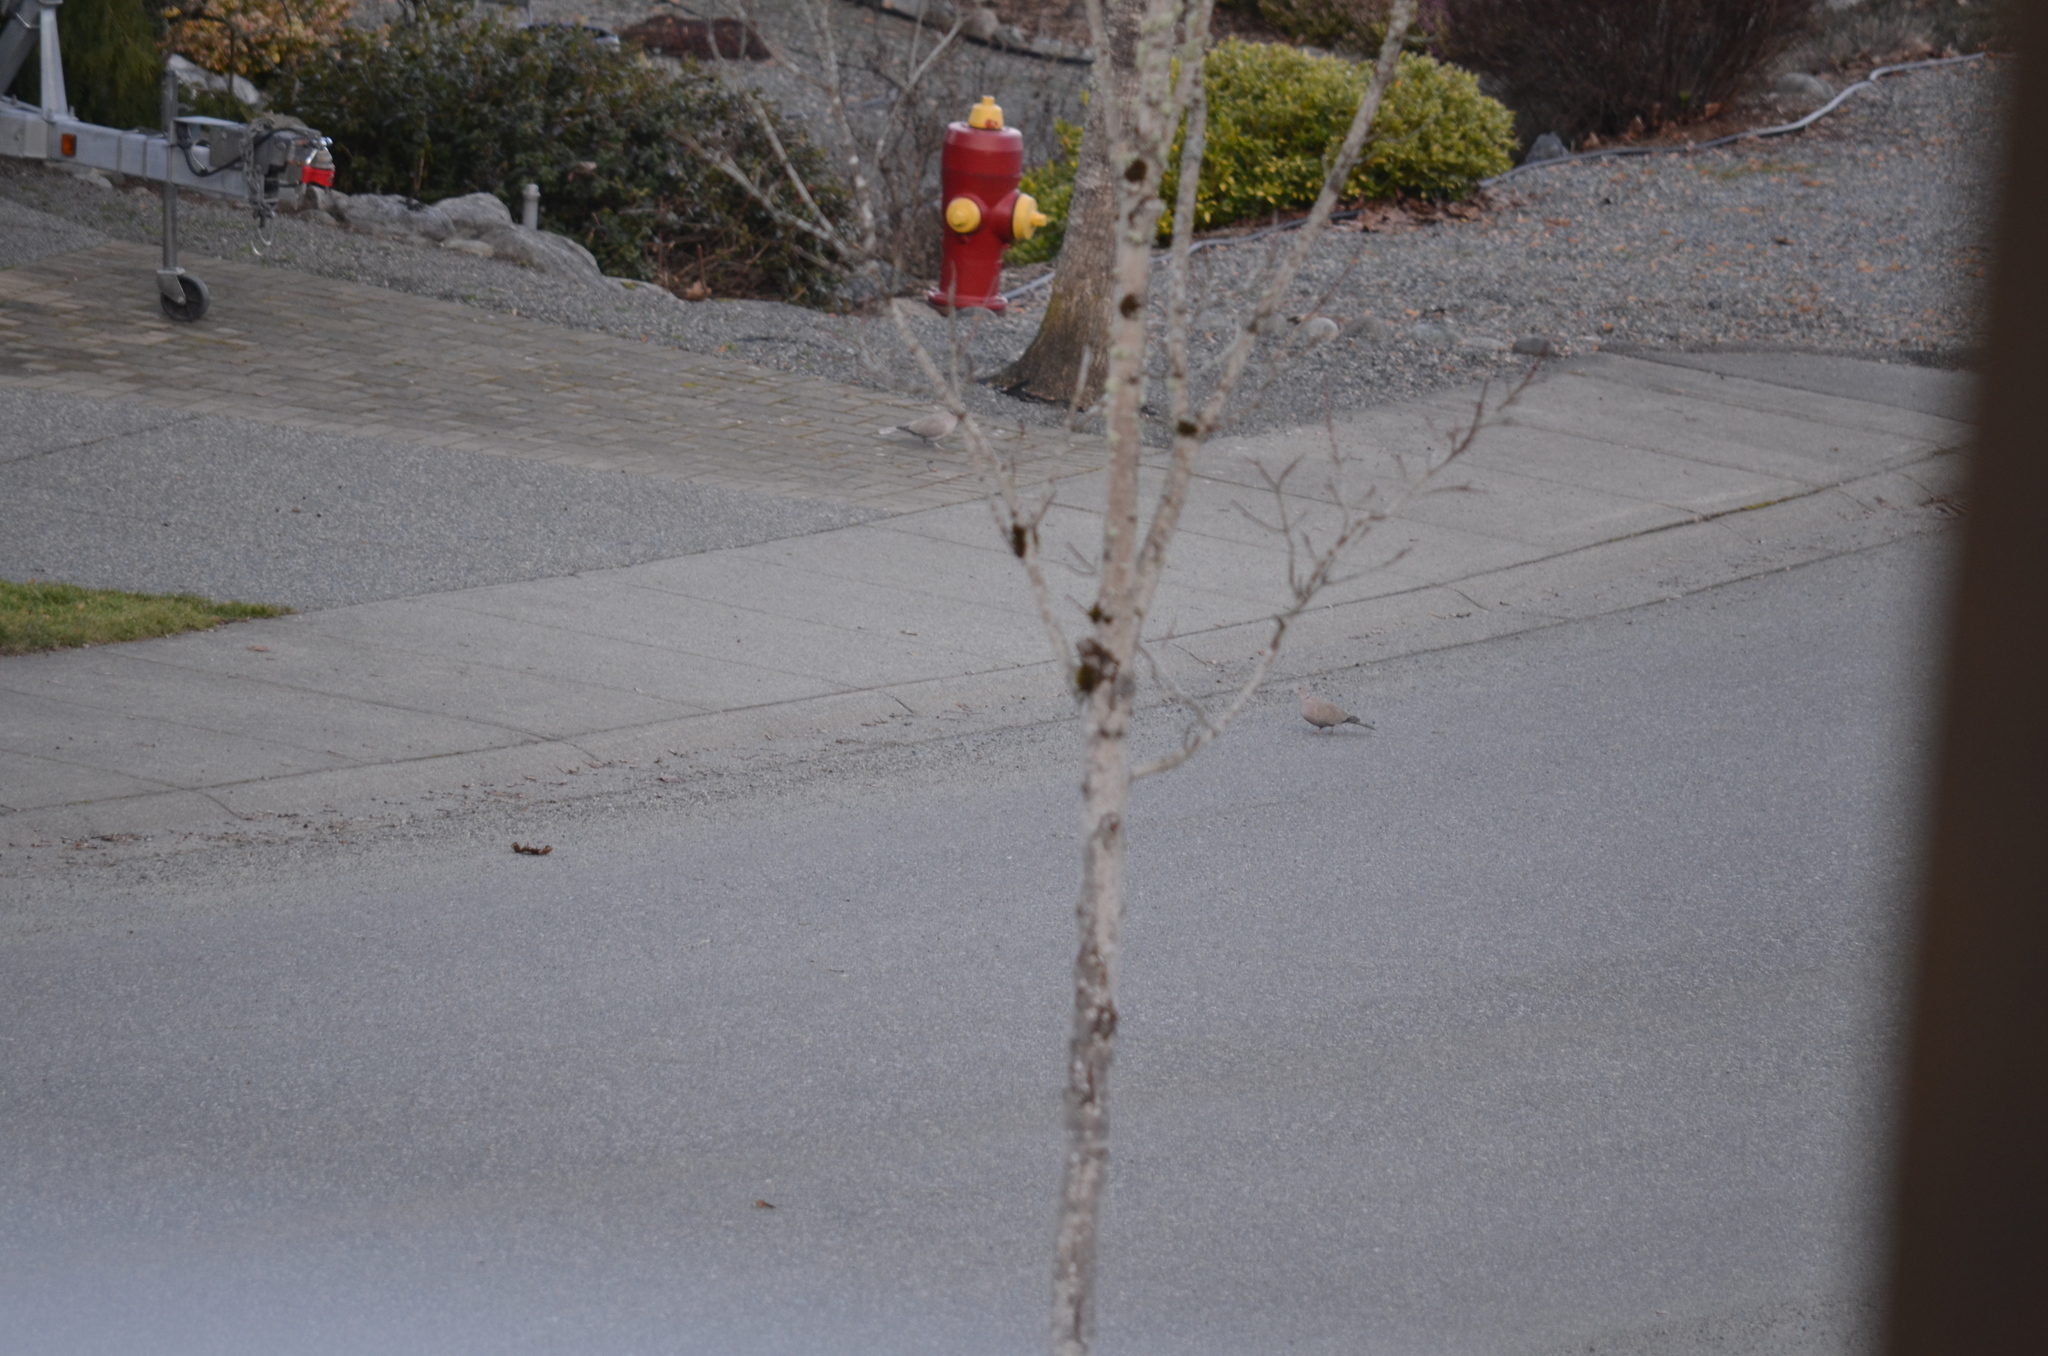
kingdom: Animalia
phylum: Chordata
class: Aves
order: Columbiformes
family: Columbidae
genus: Streptopelia
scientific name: Streptopelia decaocto
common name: Eurasian collared dove
